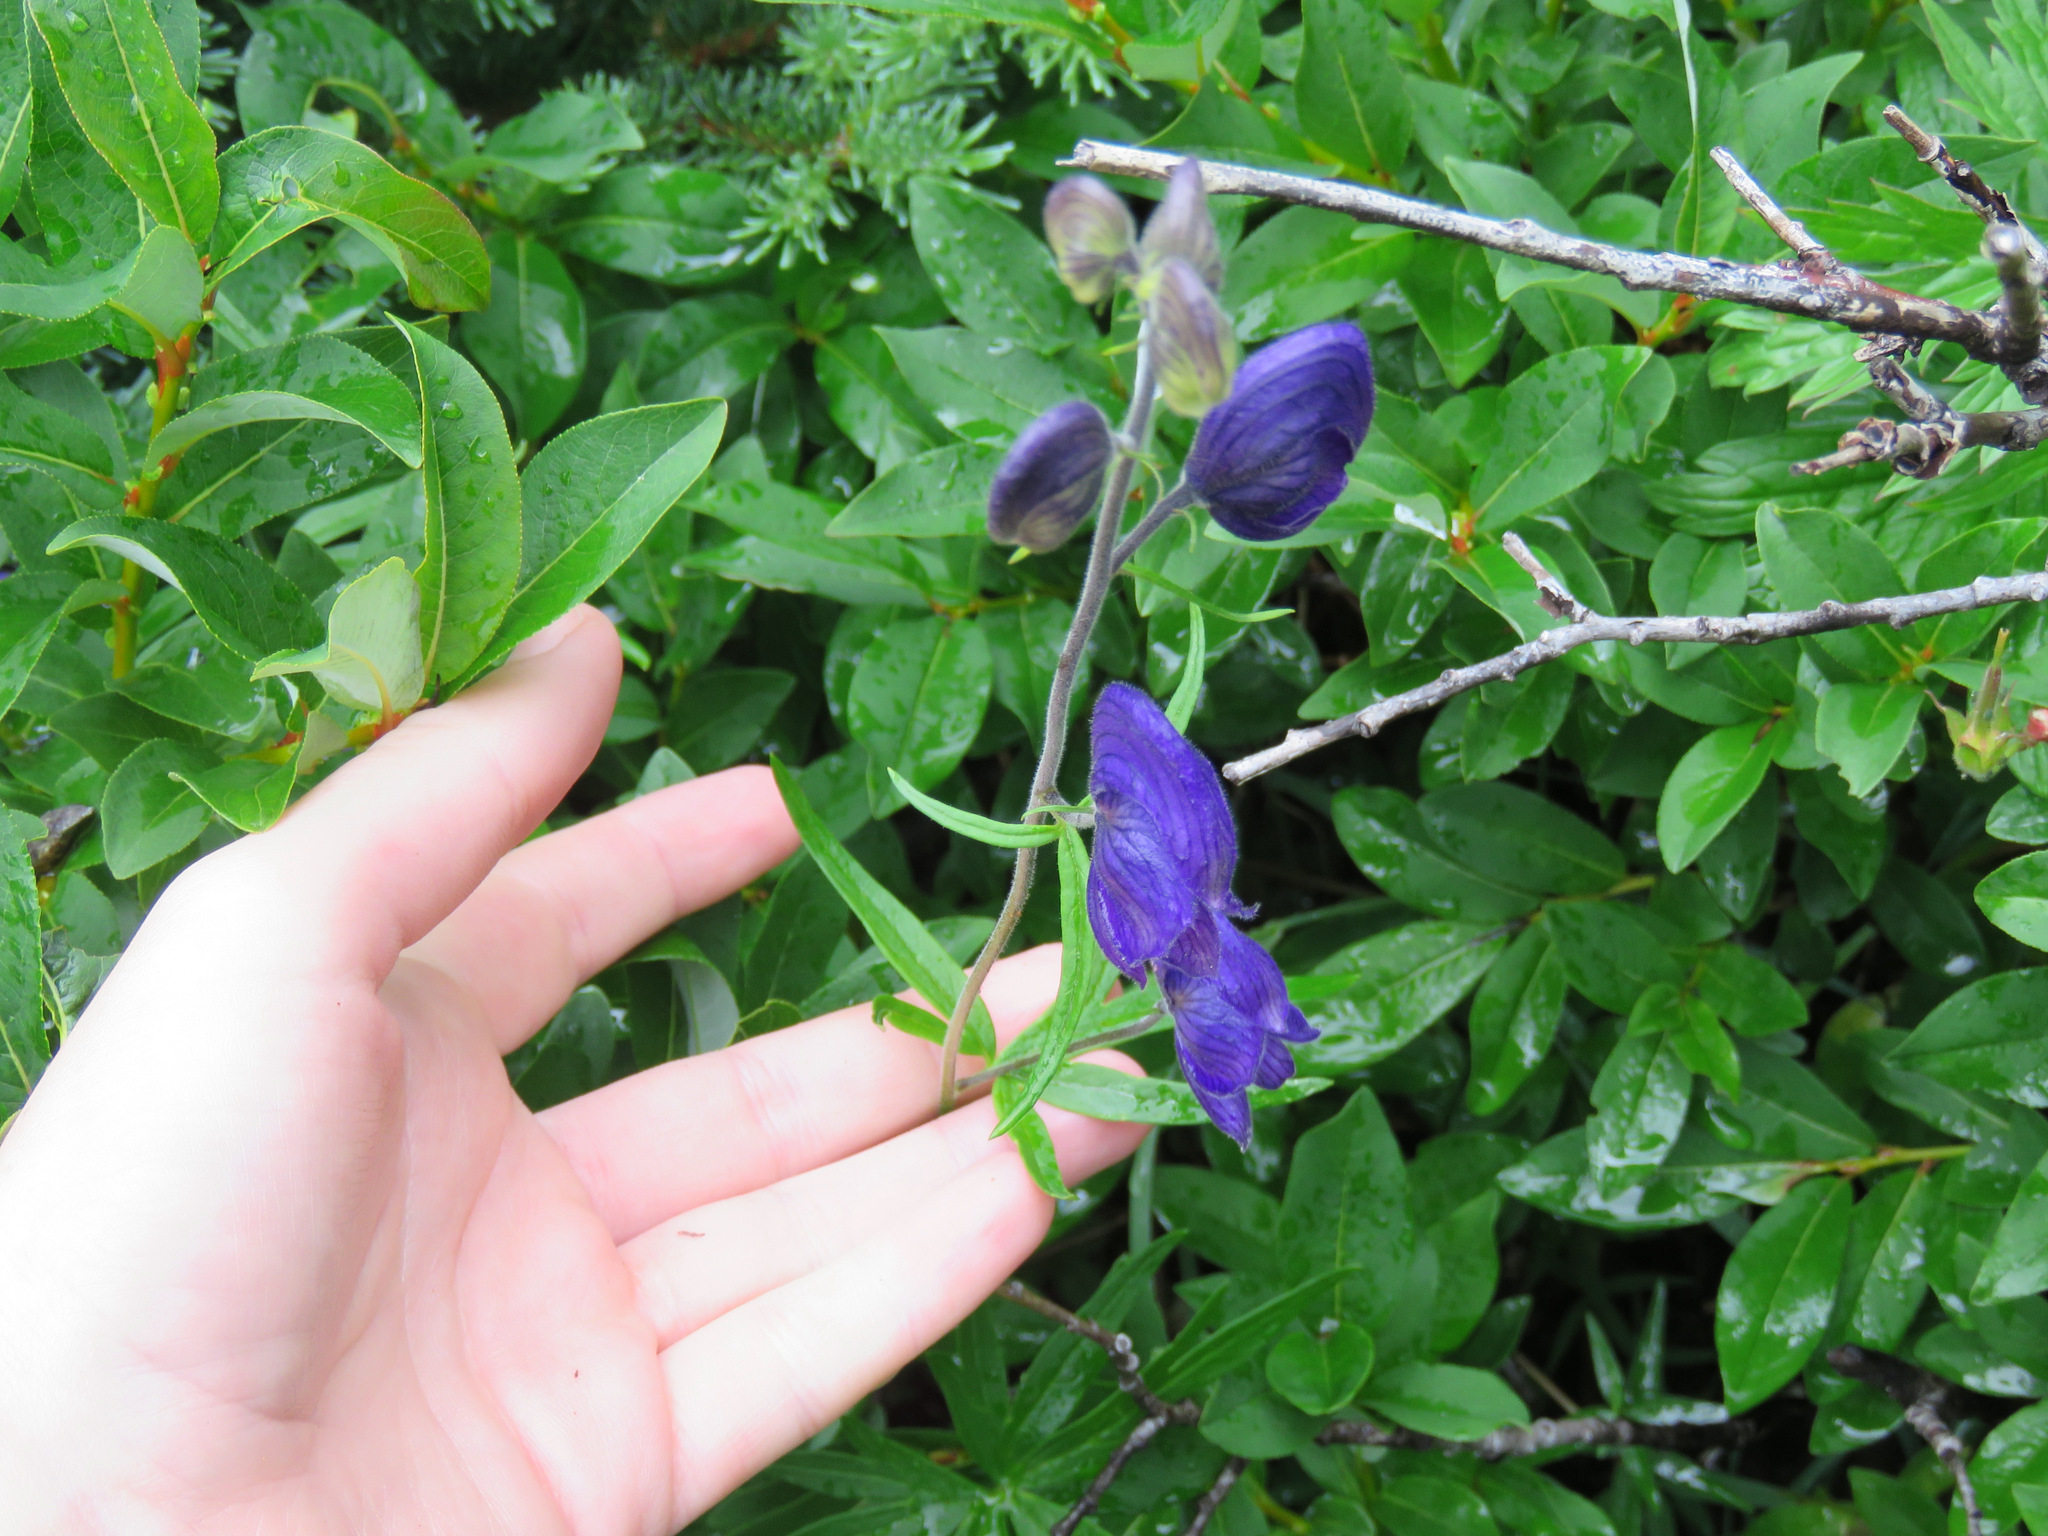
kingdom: Plantae
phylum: Tracheophyta
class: Magnoliopsida
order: Ranunculales
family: Ranunculaceae
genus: Aconitum
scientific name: Aconitum delphiniifolium
